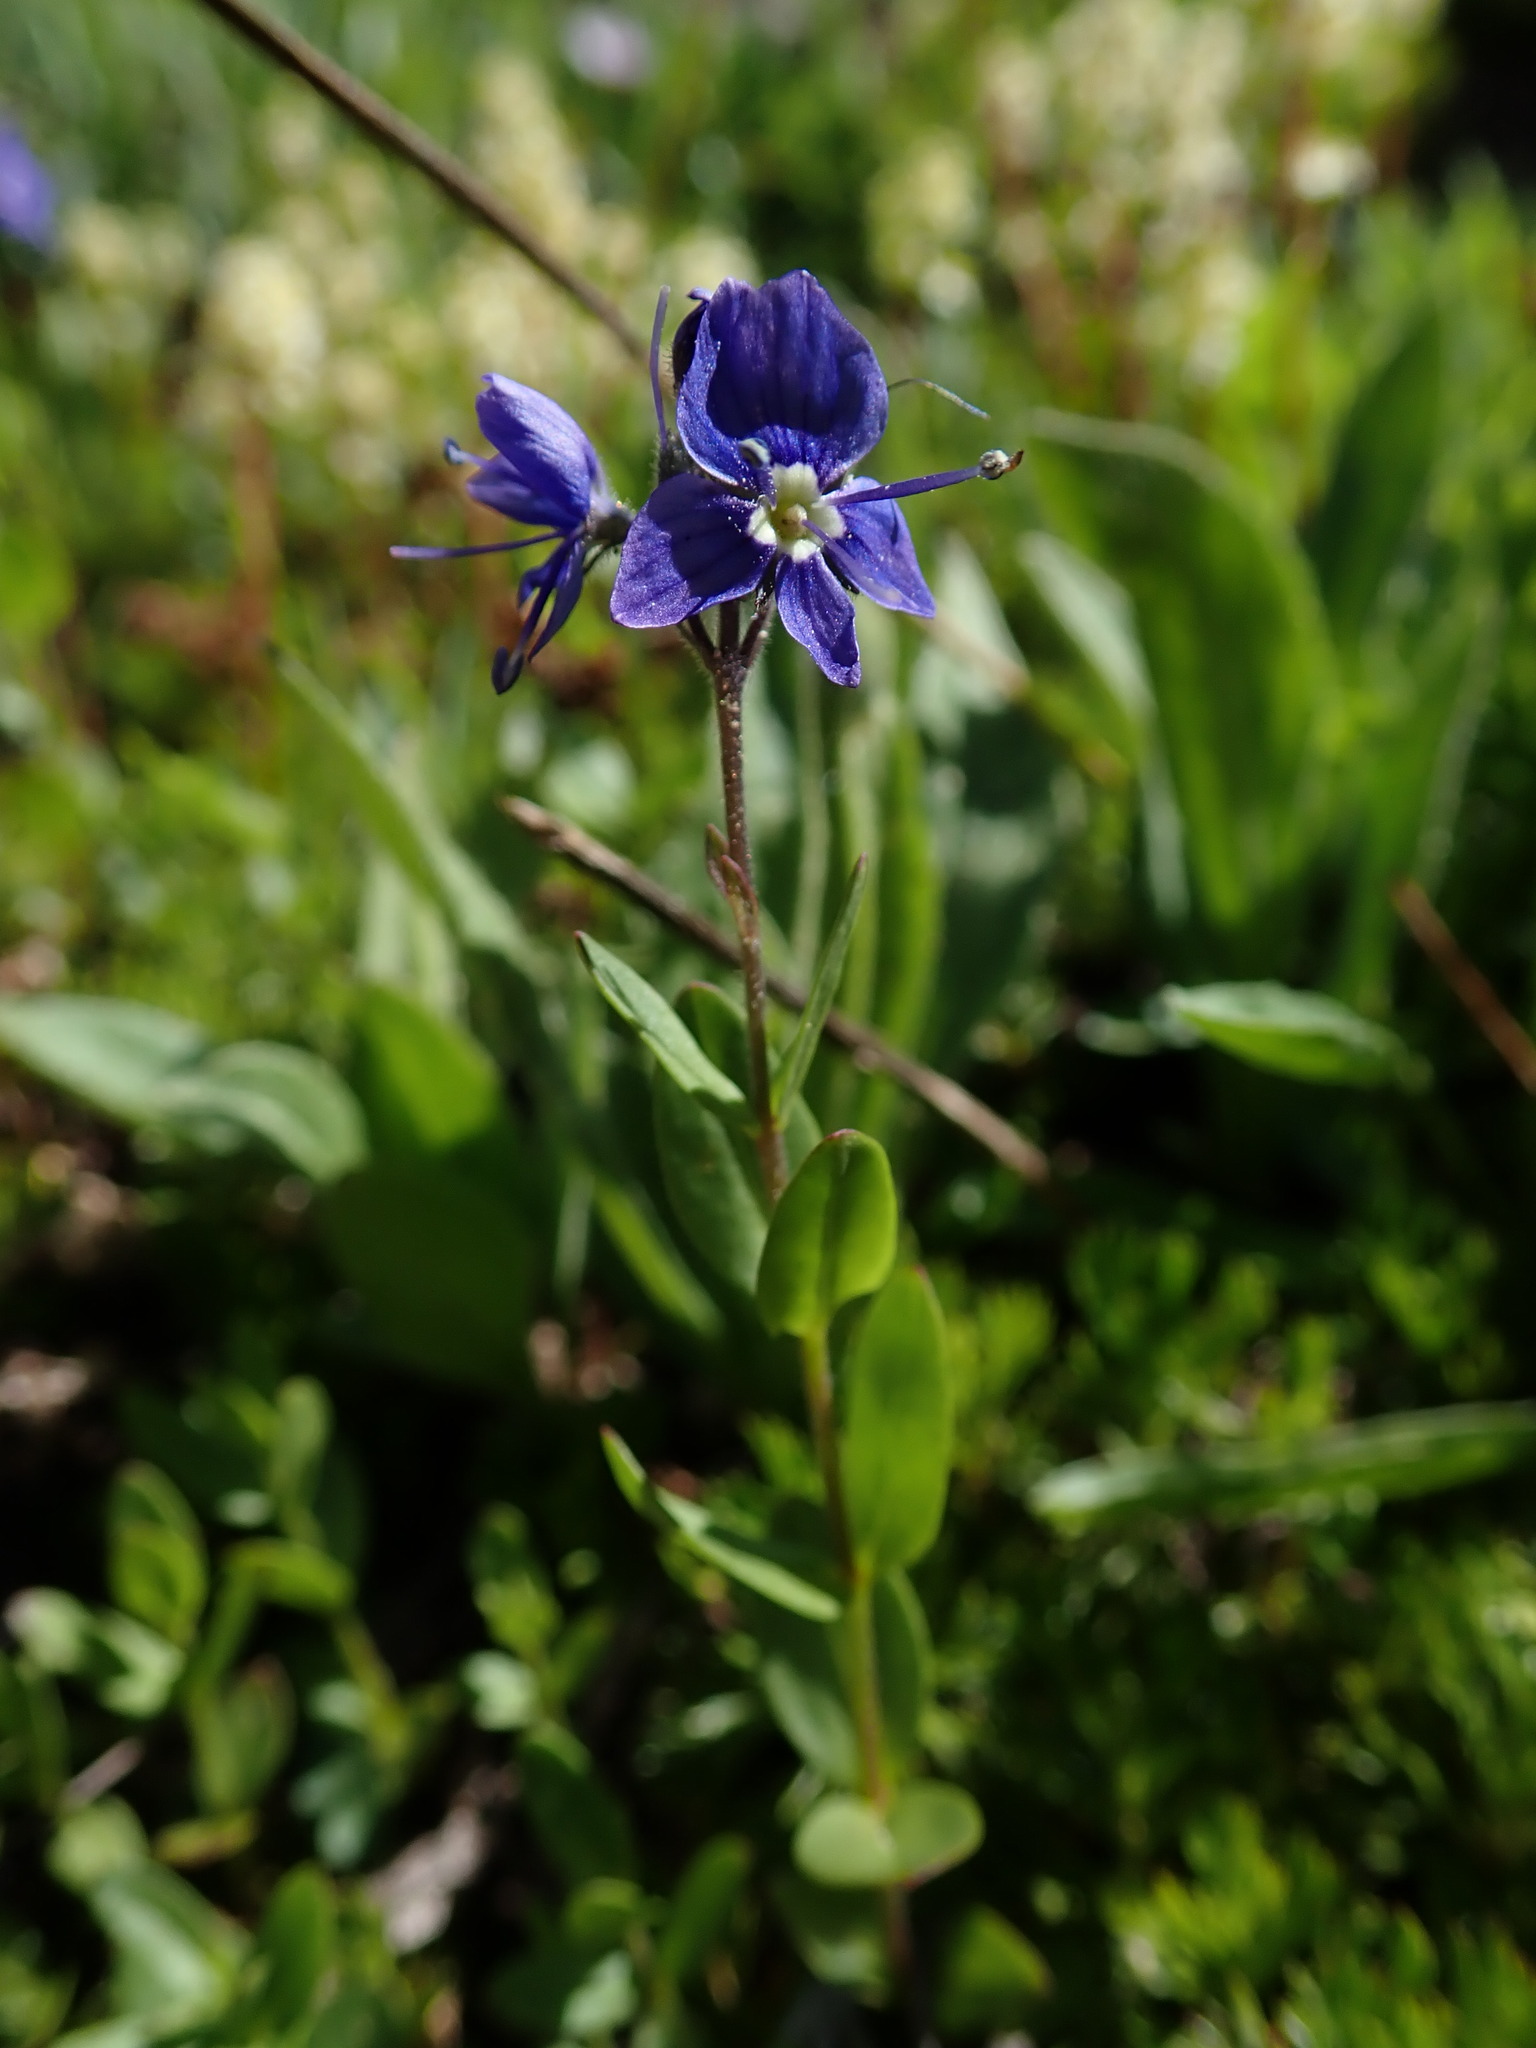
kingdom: Plantae
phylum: Tracheophyta
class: Magnoliopsida
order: Lamiales
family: Plantaginaceae
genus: Veronica
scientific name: Veronica cusickii
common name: Cusick's speedwell
